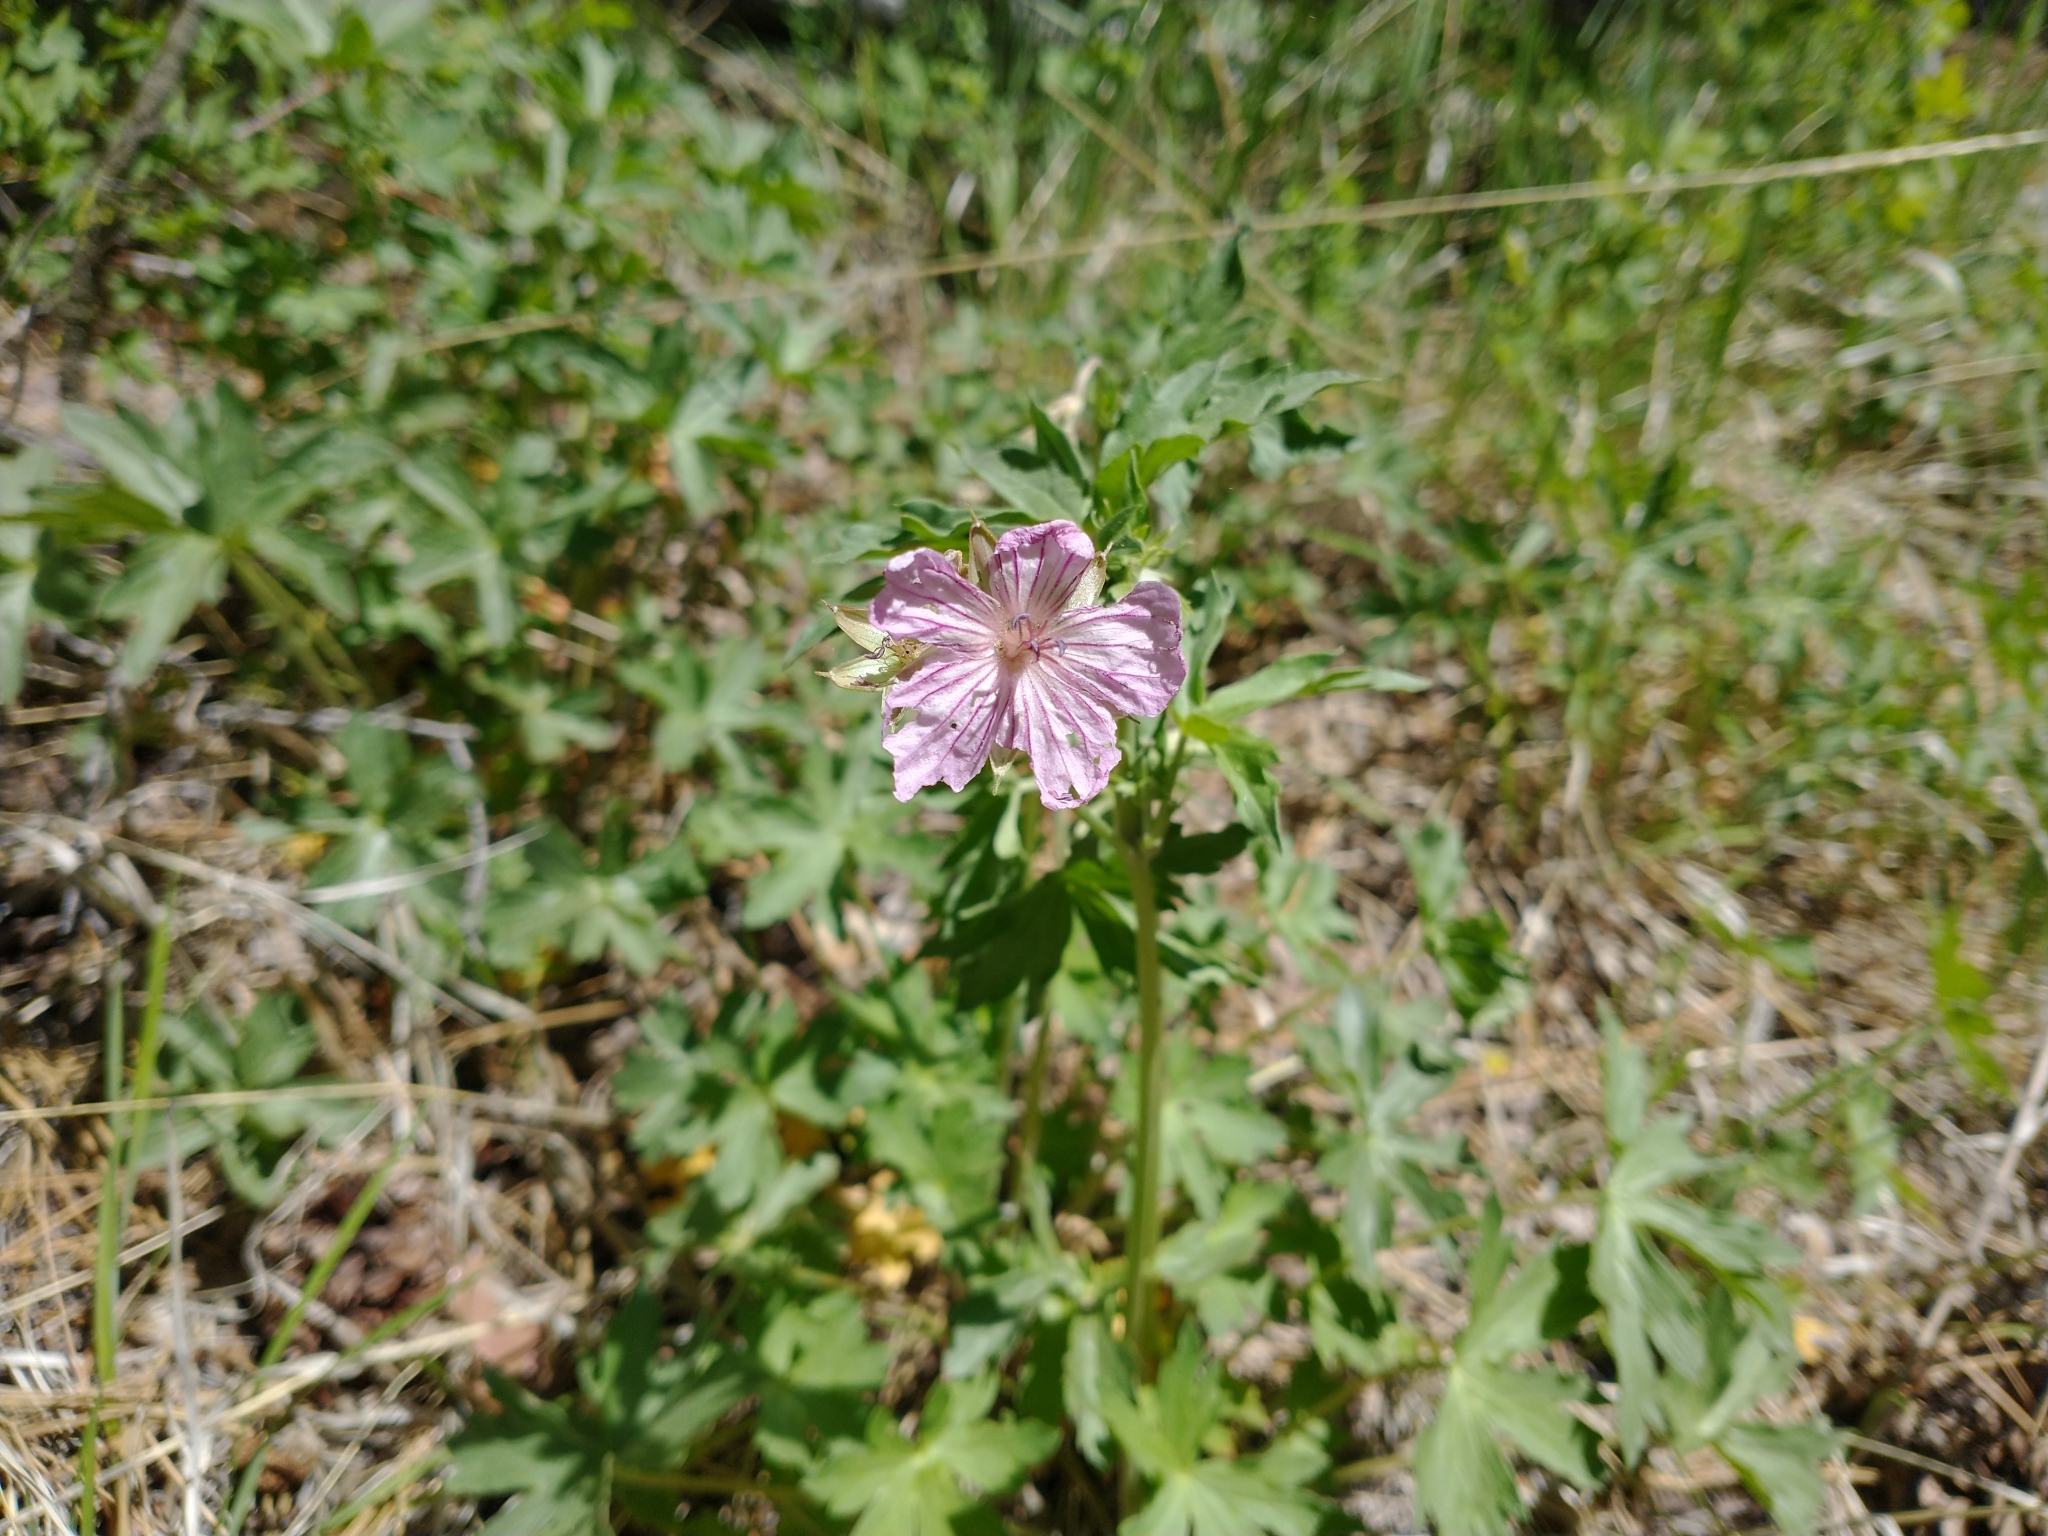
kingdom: Plantae
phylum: Tracheophyta
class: Magnoliopsida
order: Geraniales
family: Geraniaceae
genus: Geranium
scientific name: Geranium viscosissimum
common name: Purple geranium
